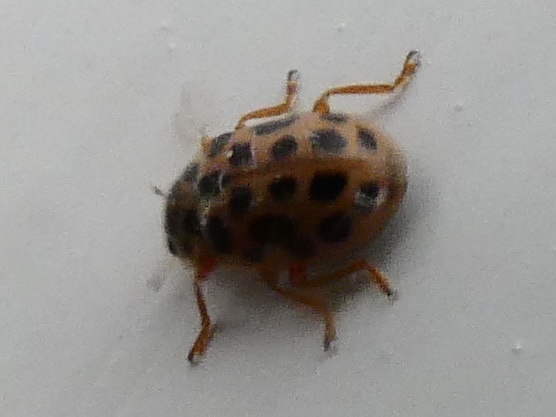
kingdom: Animalia
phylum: Arthropoda
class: Insecta
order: Coleoptera
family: Coccinellidae
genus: Anisosticta
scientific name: Anisosticta novemdecimpunctata
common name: Water ladybird
